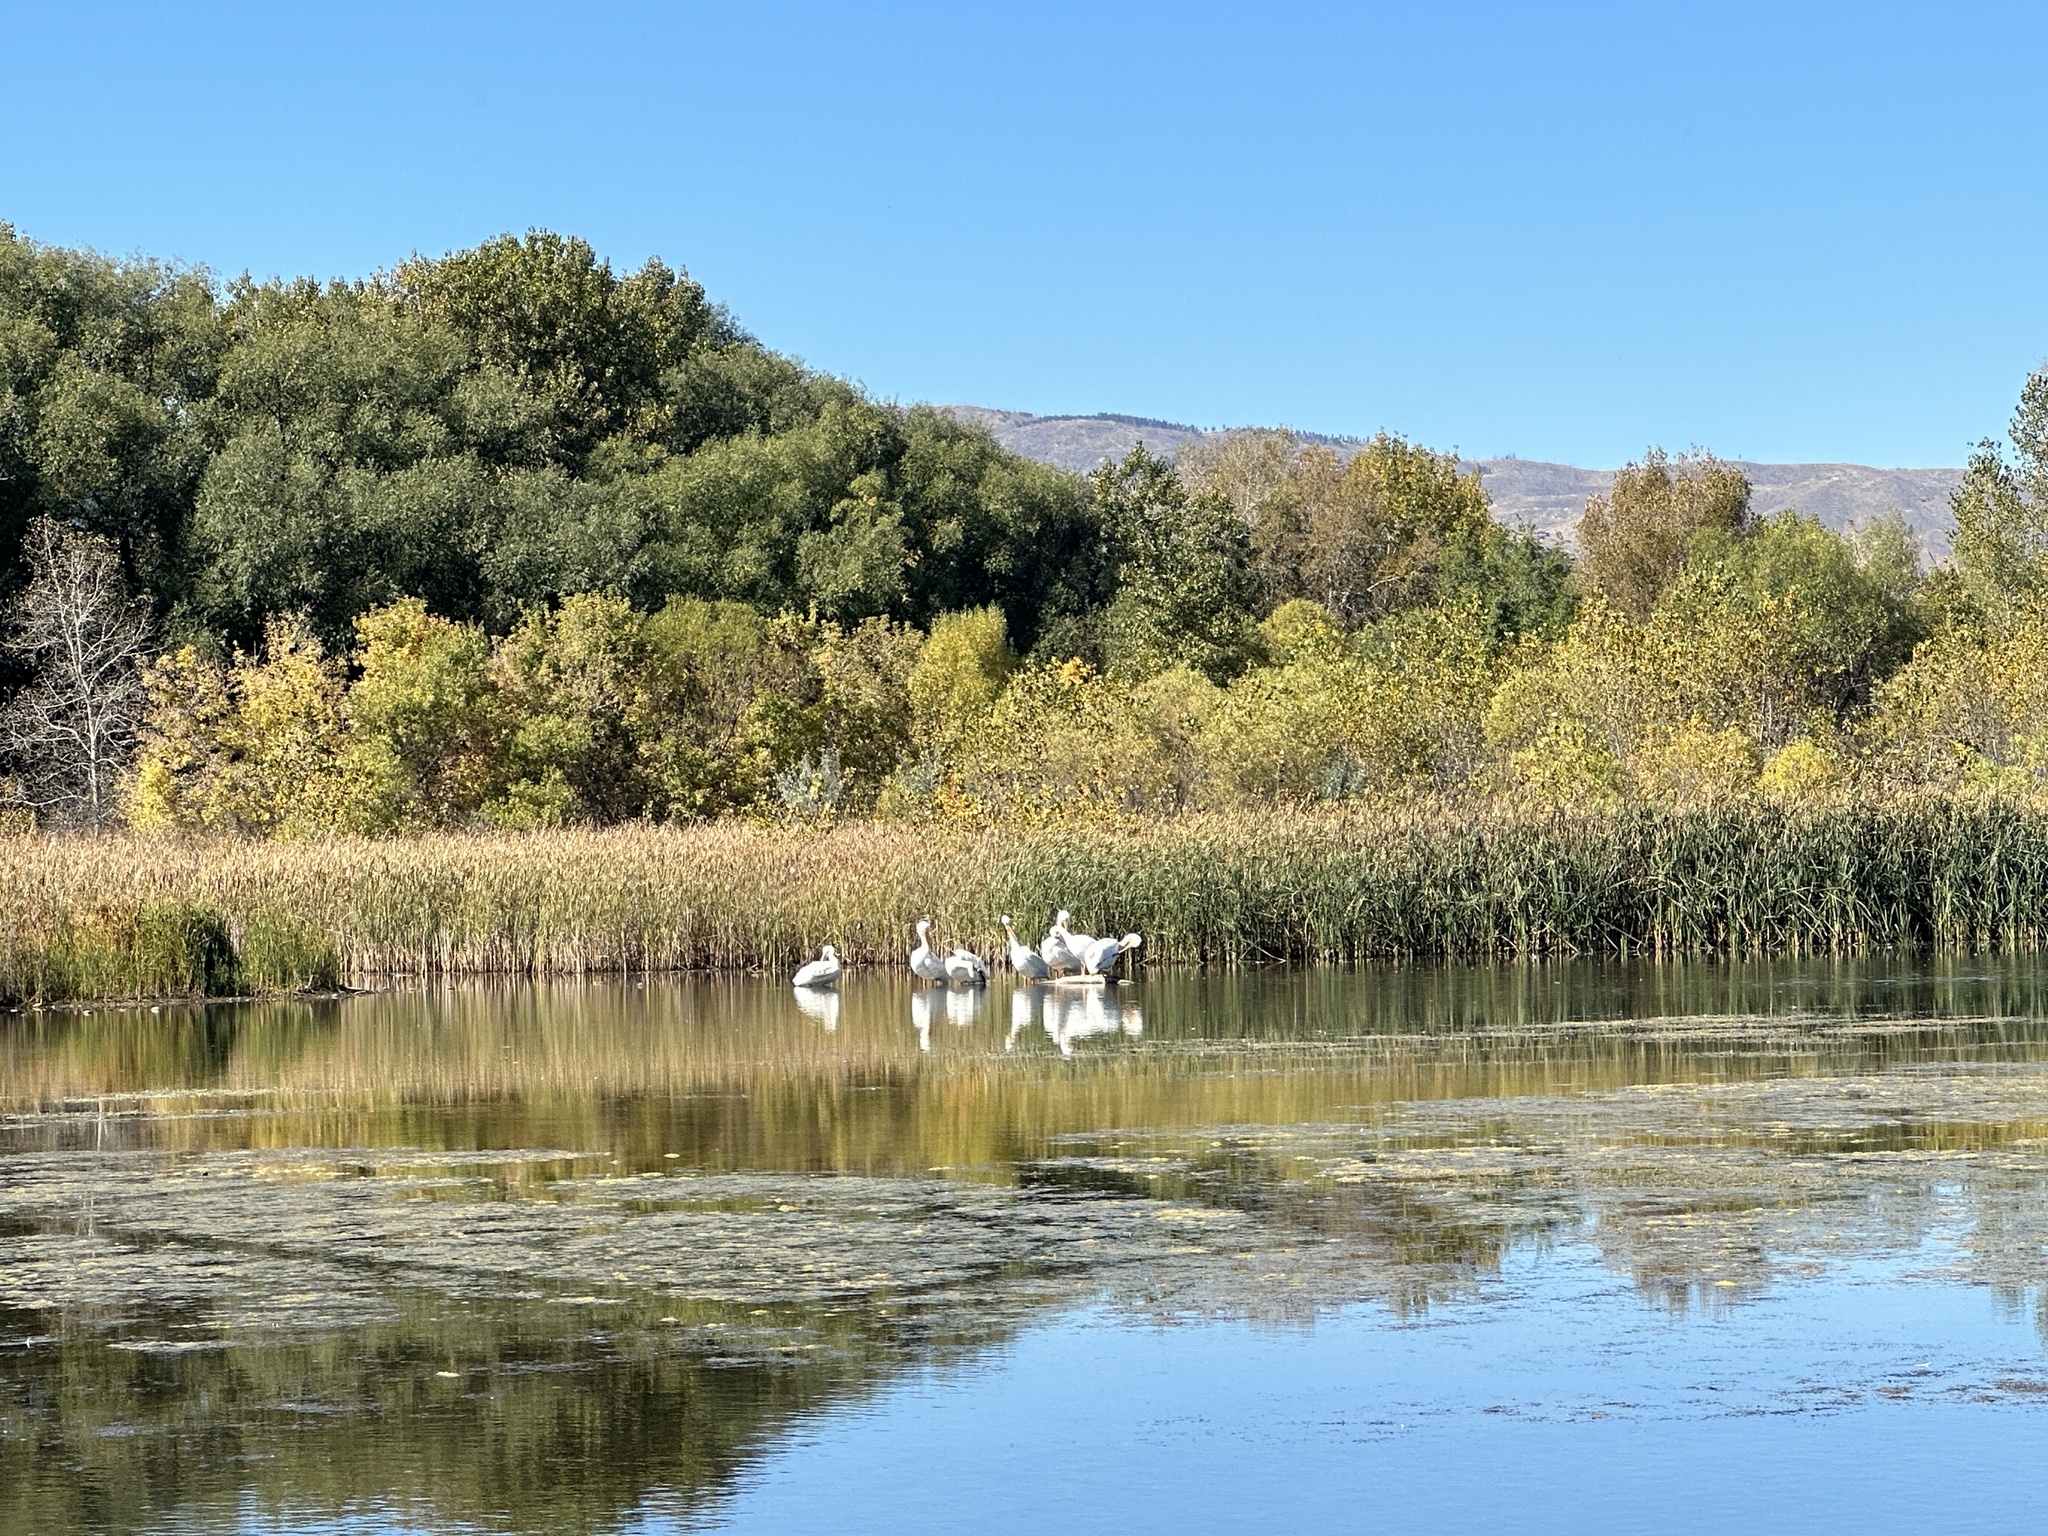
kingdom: Animalia
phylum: Chordata
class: Aves
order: Pelecaniformes
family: Pelecanidae
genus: Pelecanus
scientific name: Pelecanus erythrorhynchos
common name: American white pelican
